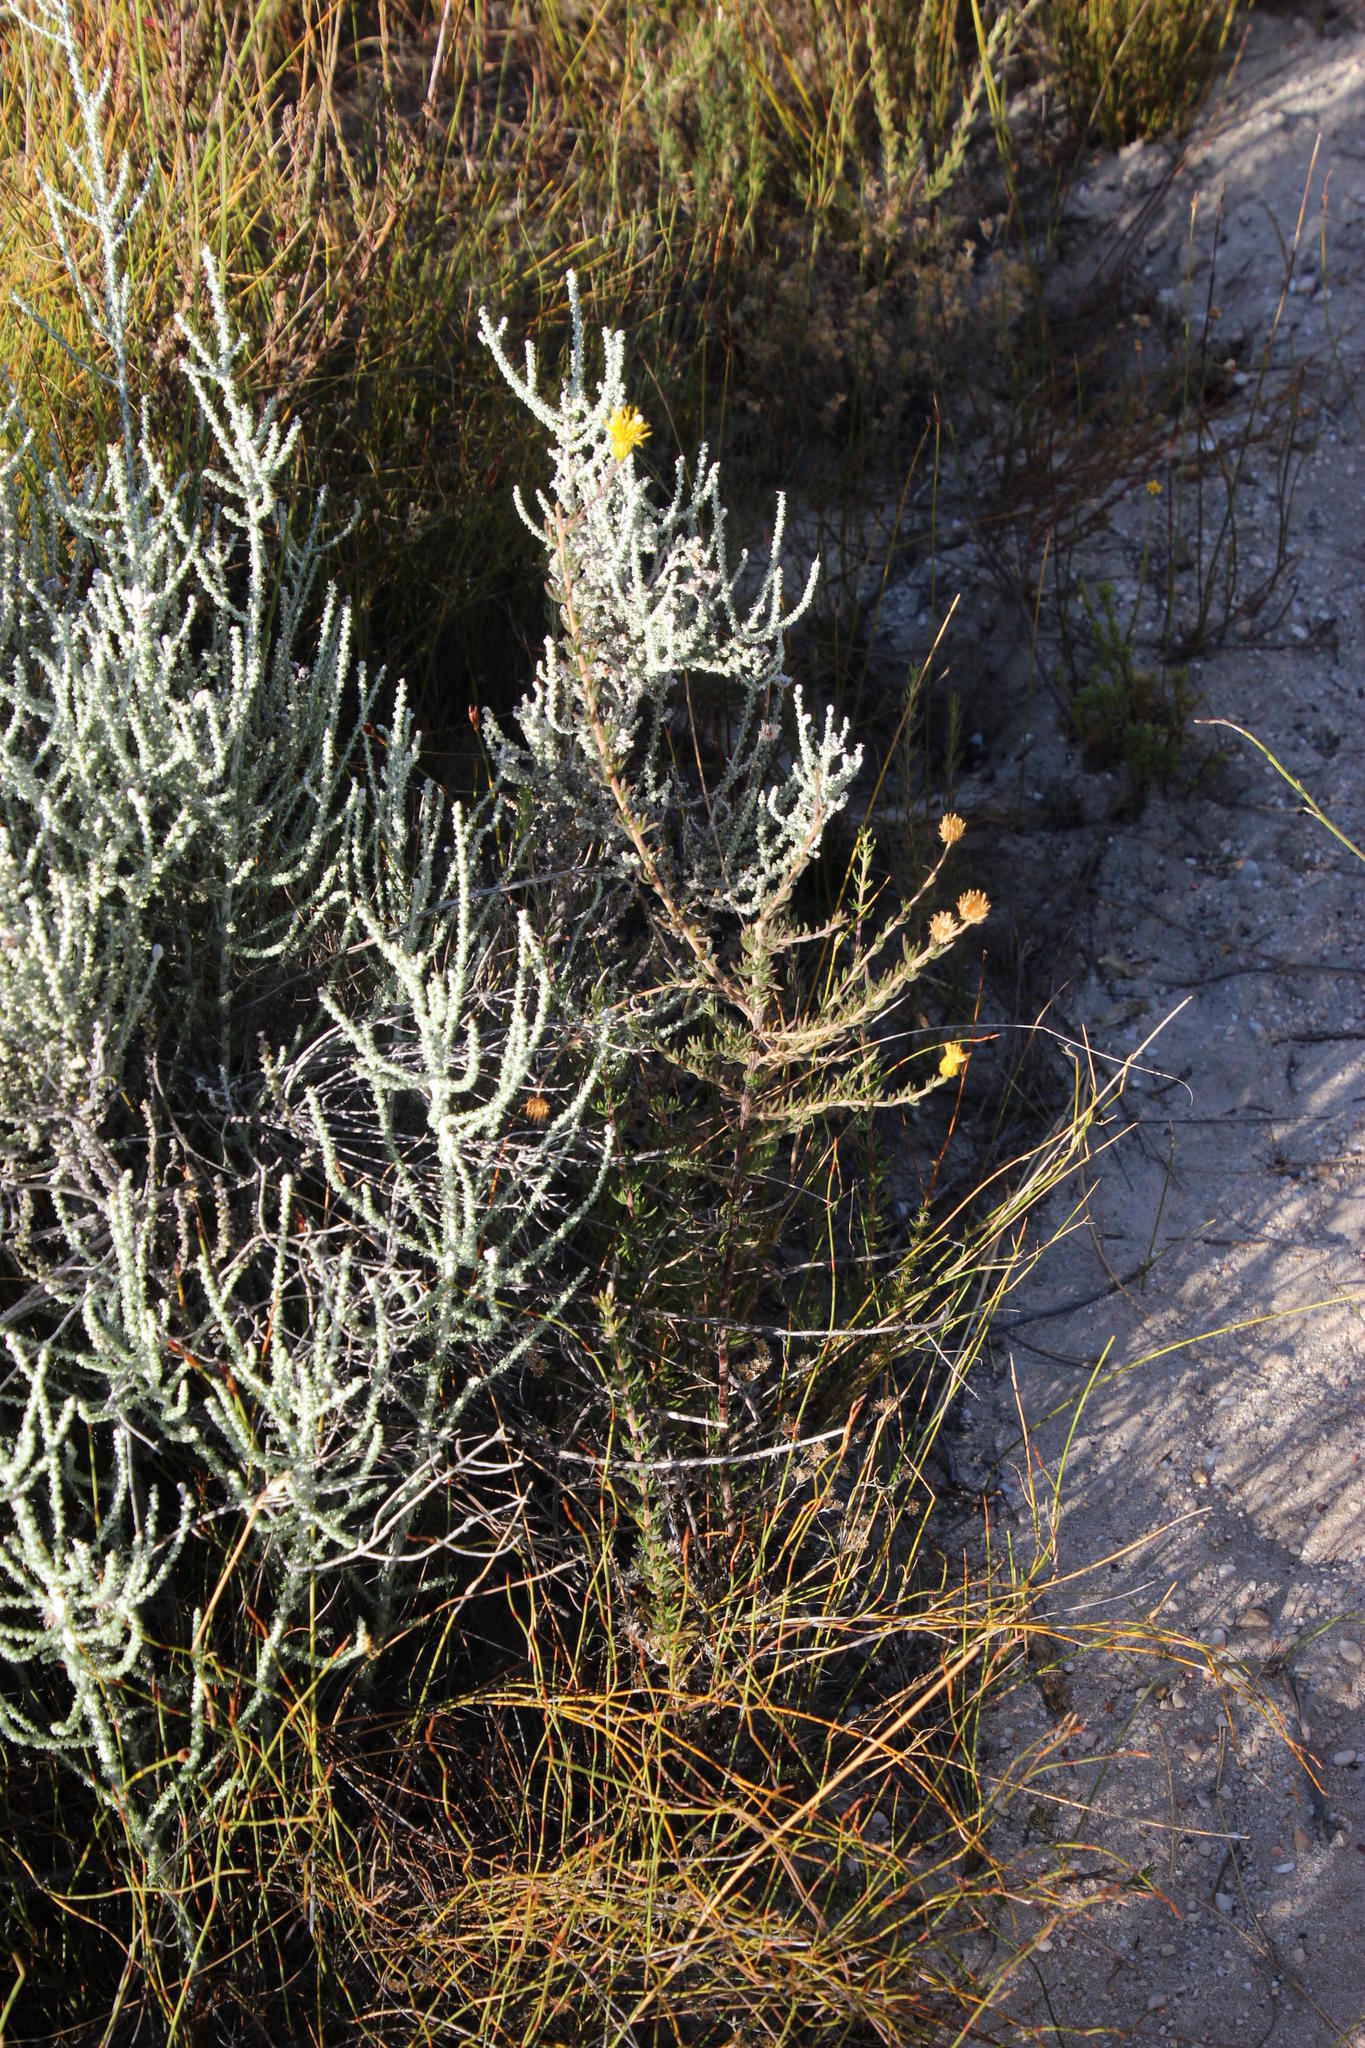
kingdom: Plantae
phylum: Tracheophyta
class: Magnoliopsida
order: Asterales
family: Asteraceae
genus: Pteronia
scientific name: Pteronia camphorata
